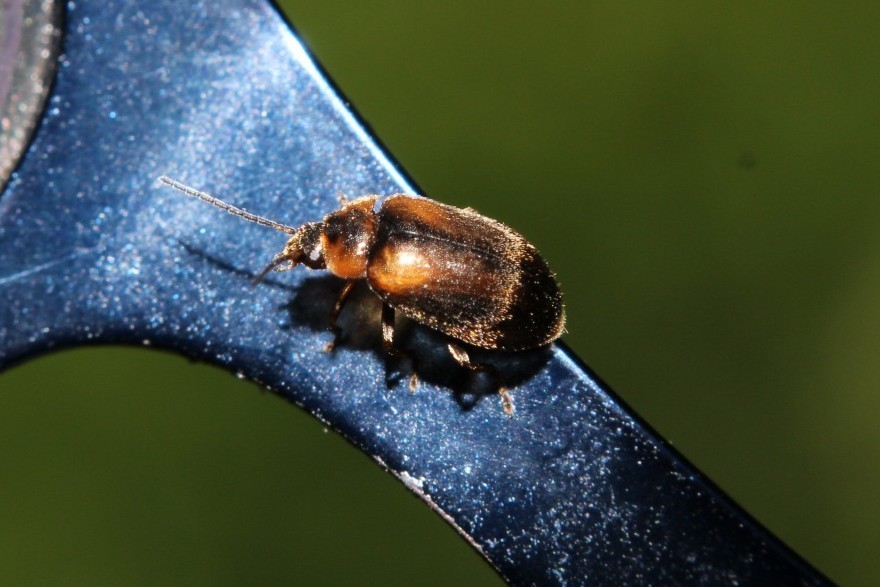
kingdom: Animalia
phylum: Arthropoda
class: Insecta
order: Coleoptera
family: Scirtidae
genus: Odeles
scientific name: Odeles marginata
